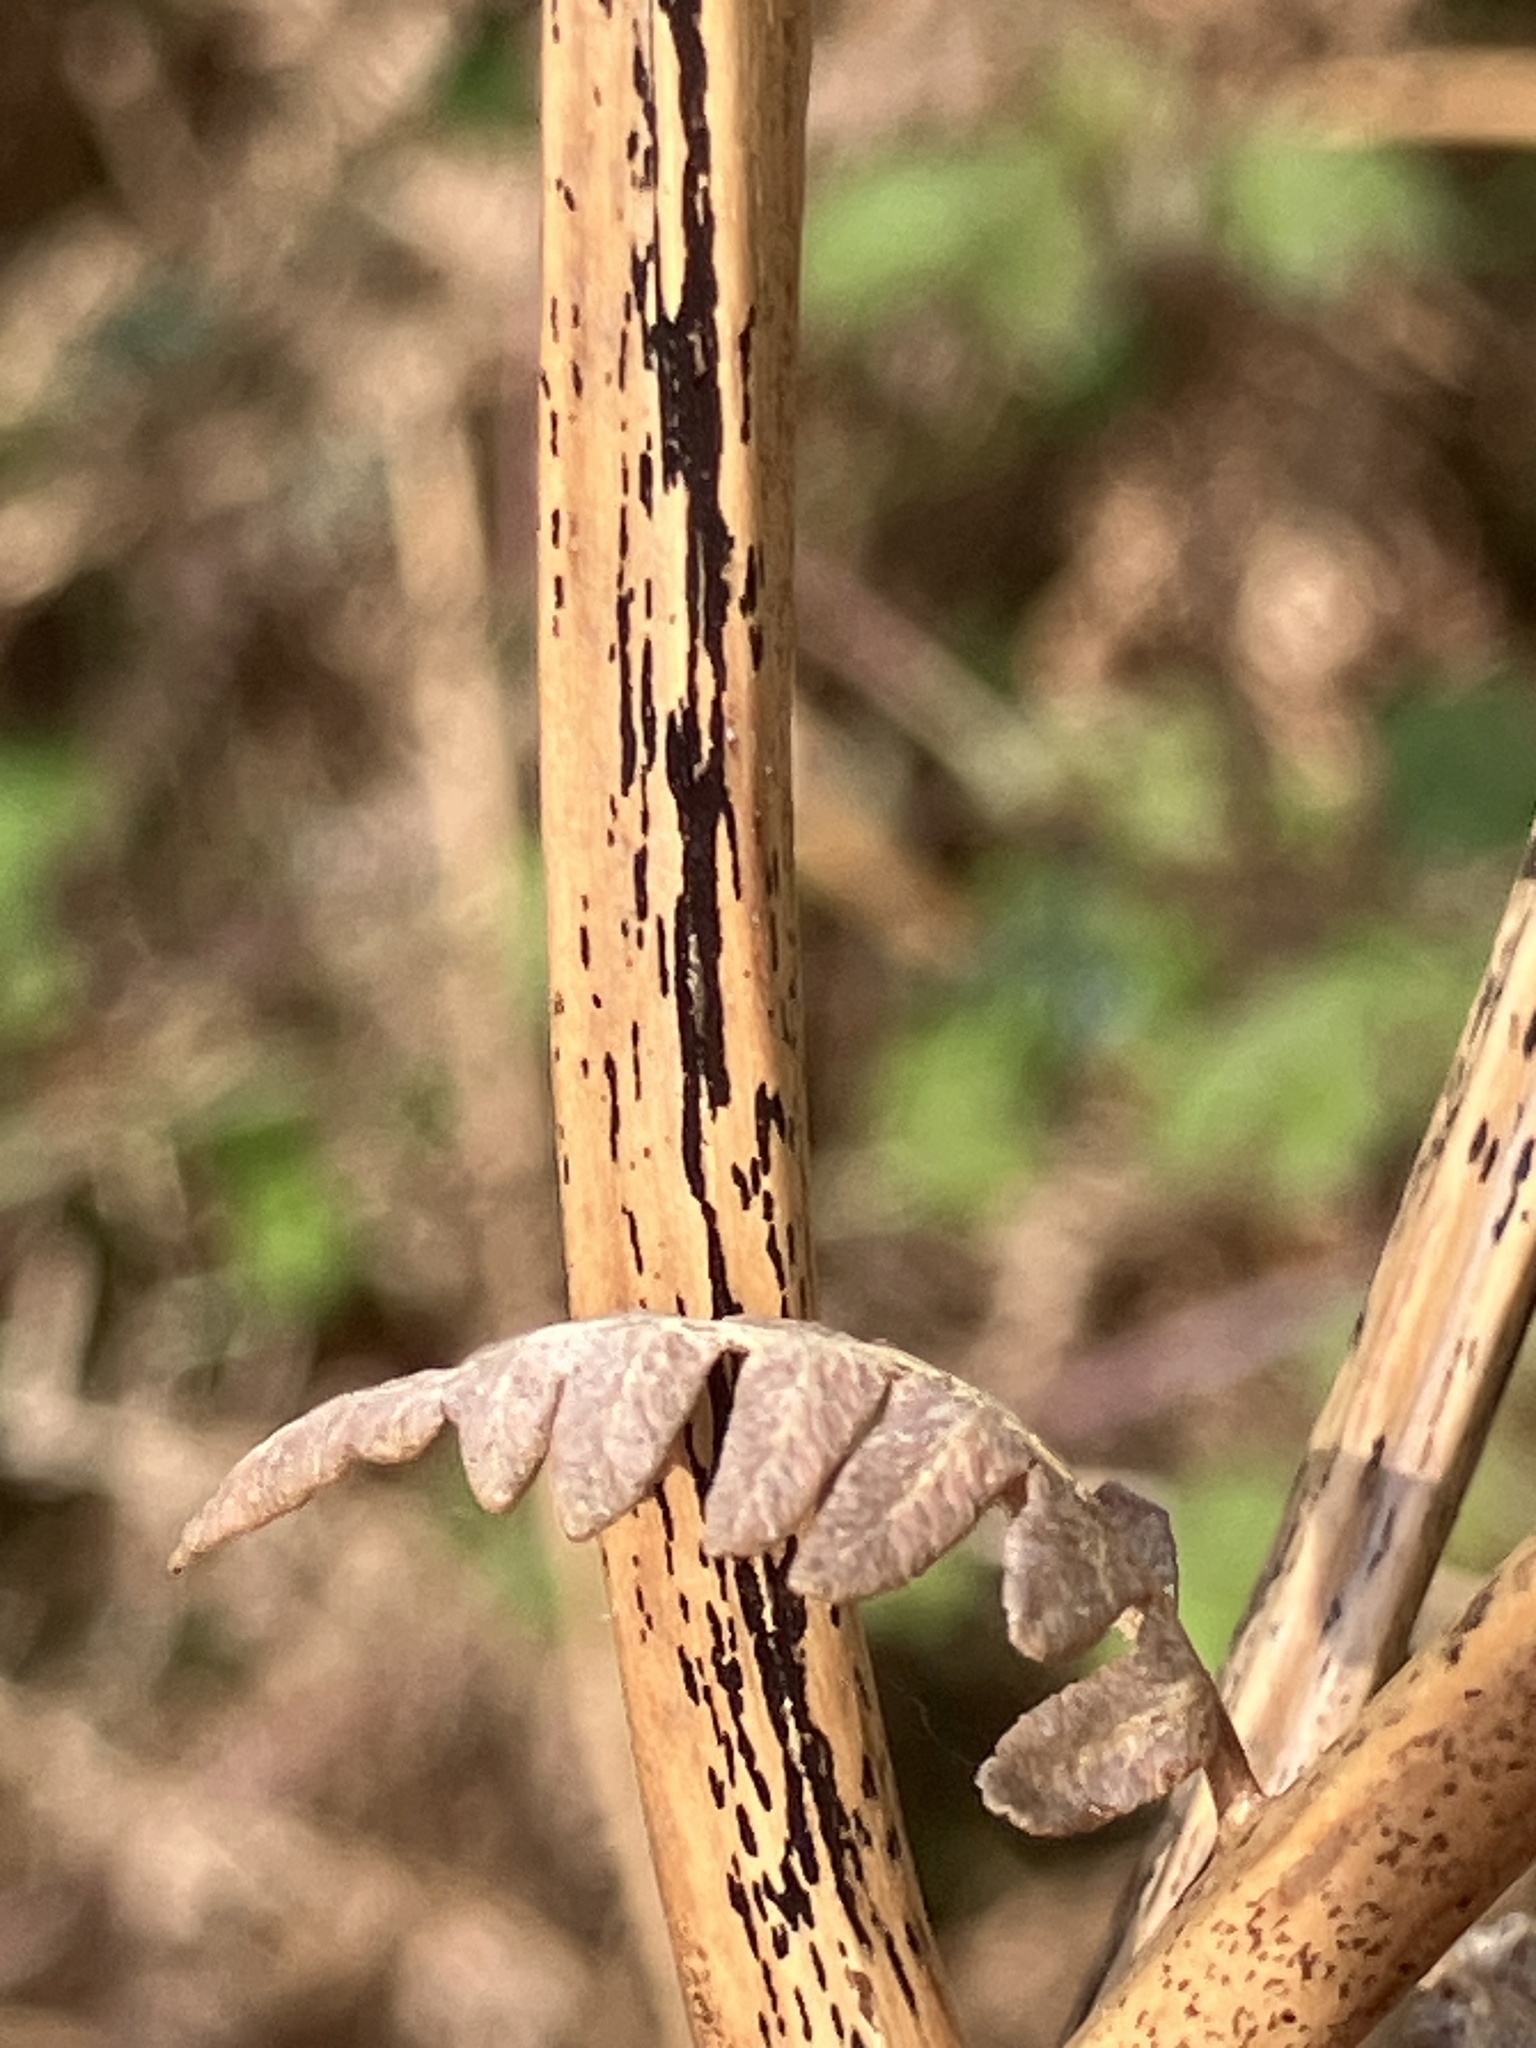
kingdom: Fungi
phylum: Ascomycota
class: Dothideomycetes
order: Pleosporales
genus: Rhopographus
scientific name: Rhopographus filicinus
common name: Bracken map
